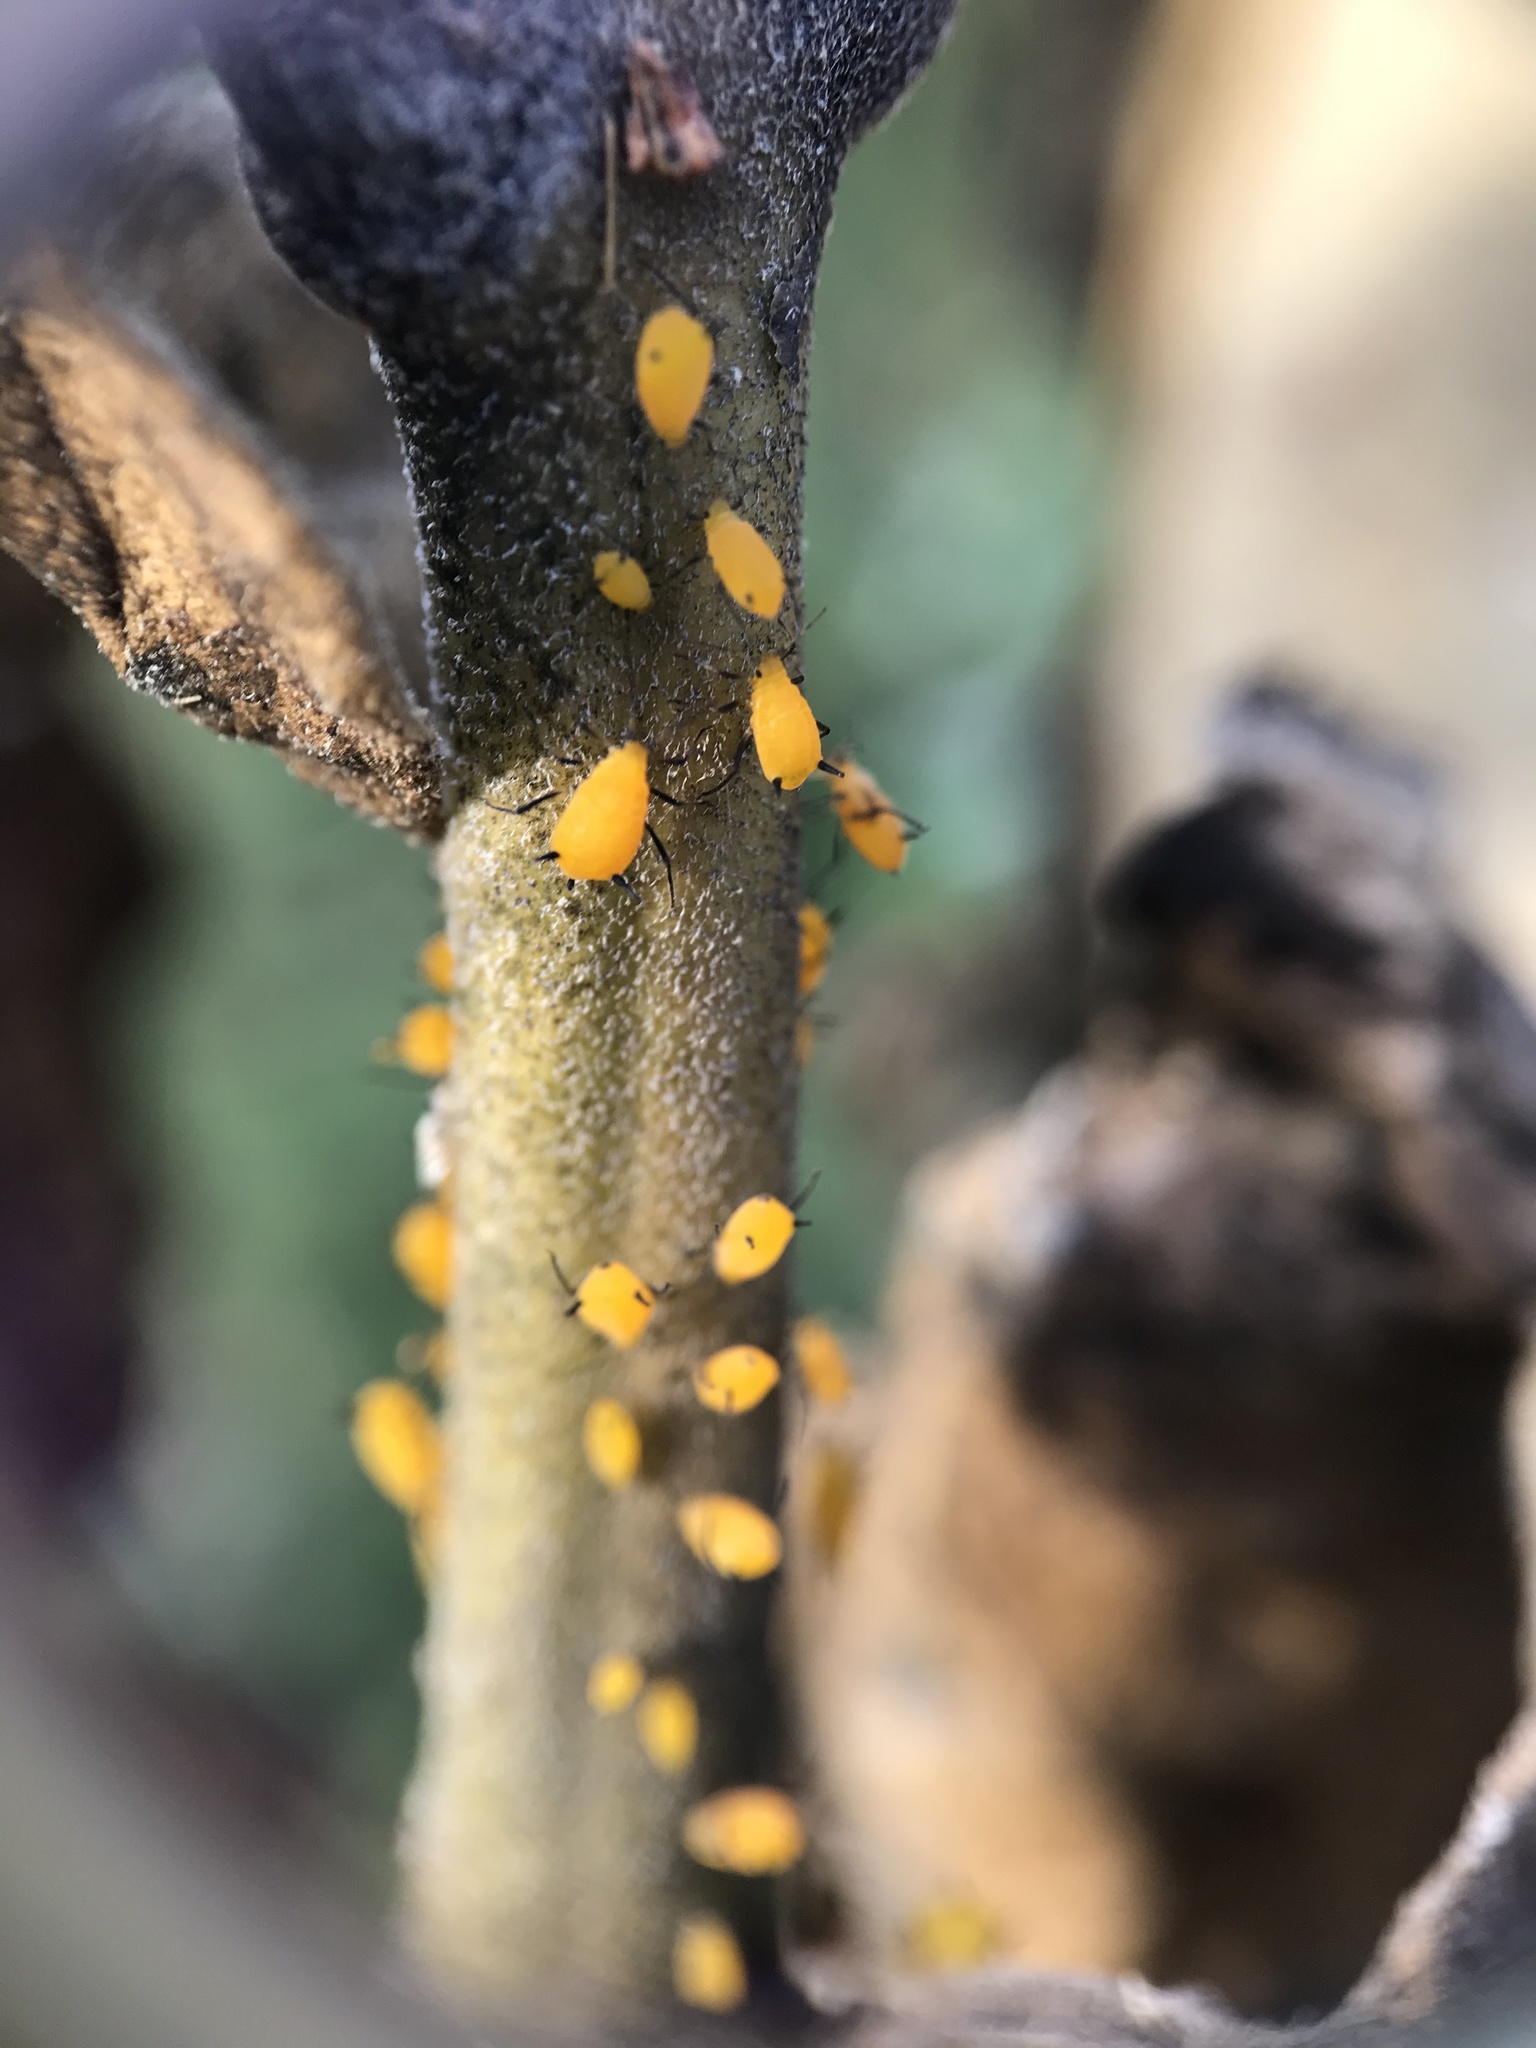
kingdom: Animalia
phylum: Arthropoda
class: Insecta
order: Hemiptera
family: Aphididae
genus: Aphis
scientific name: Aphis nerii
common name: Oleander aphid
